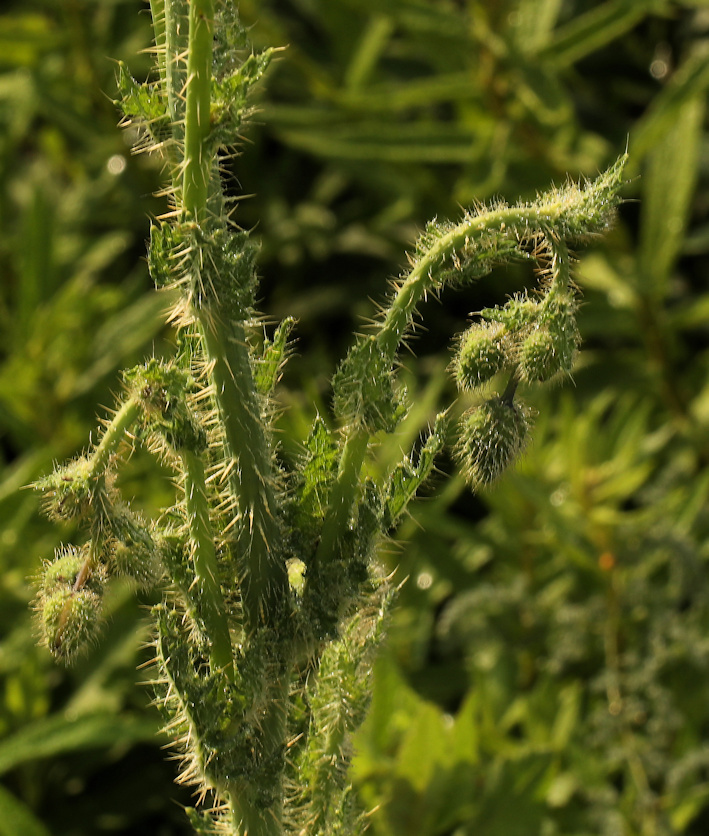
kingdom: Plantae
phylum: Tracheophyta
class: Magnoliopsida
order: Ranunculales
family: Papaveraceae
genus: Papaver
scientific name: Papaver aculeatum
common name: Bristle poppy
